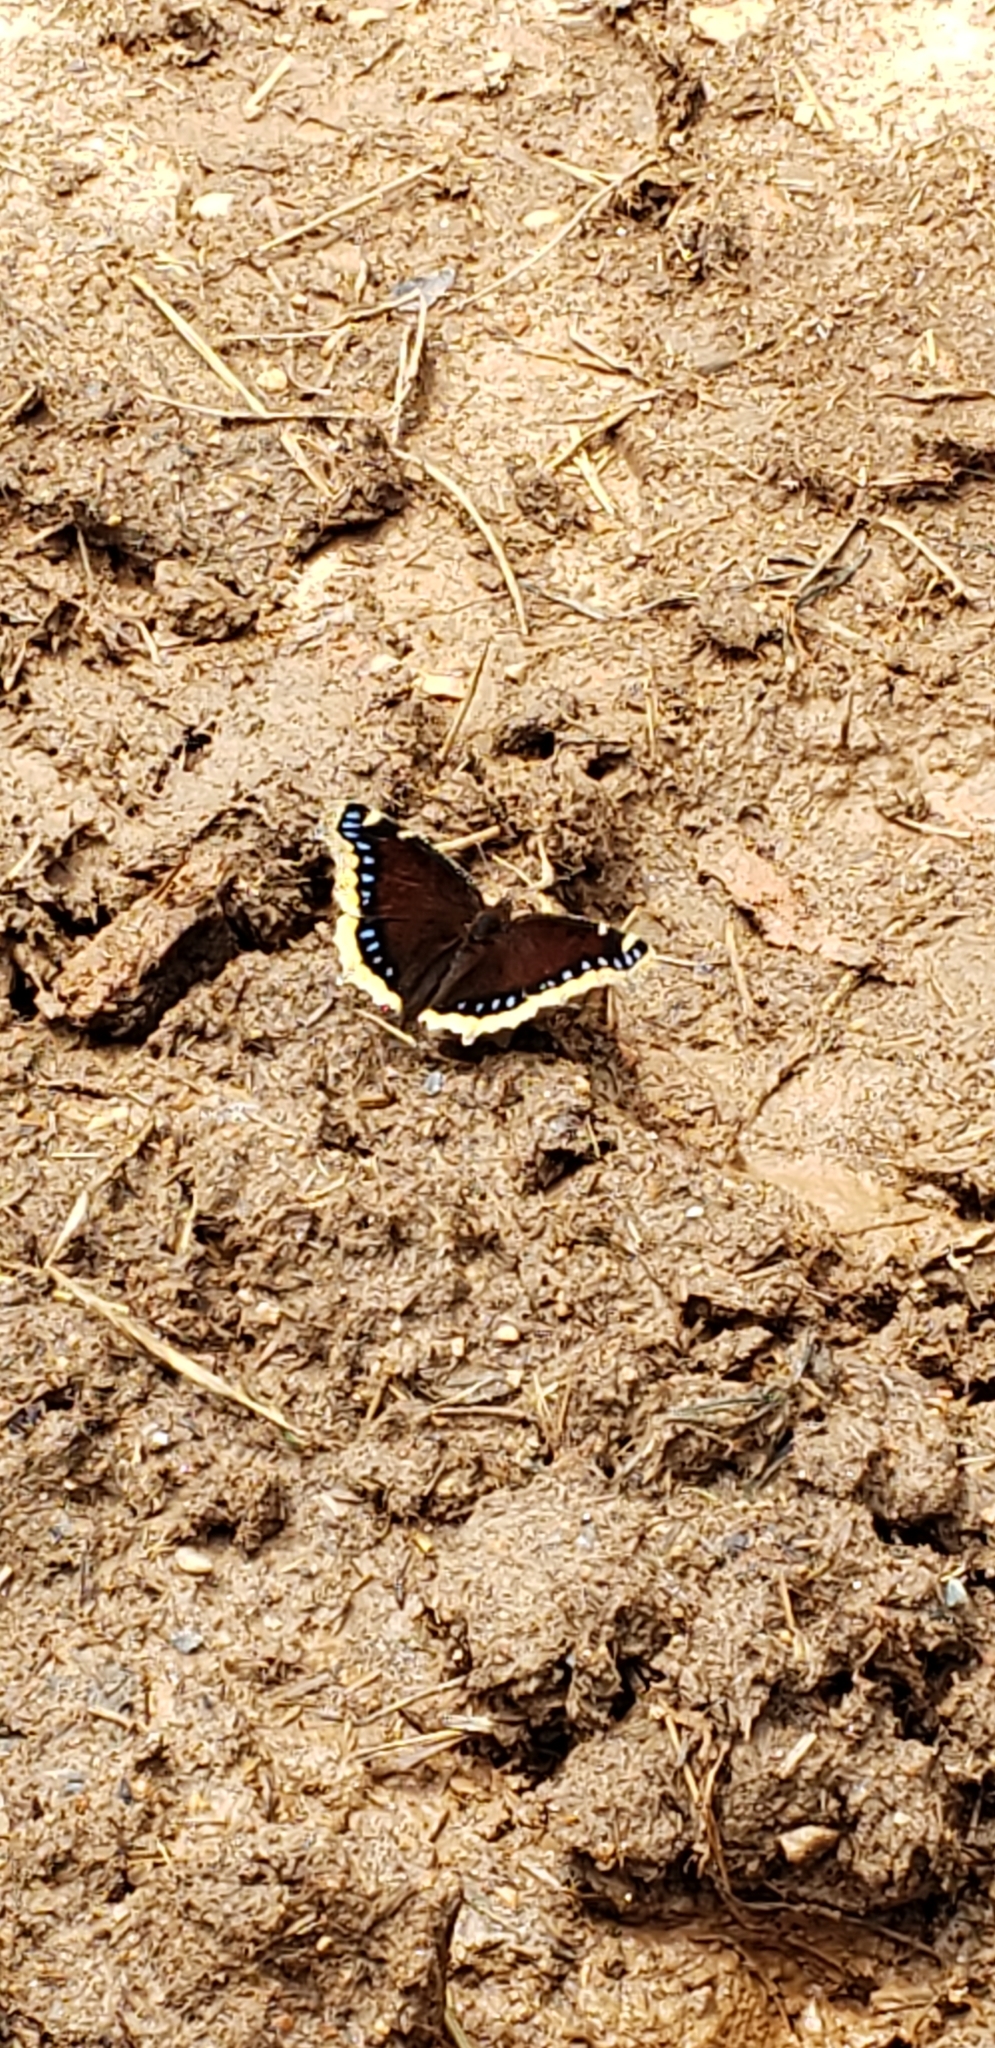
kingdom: Animalia
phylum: Arthropoda
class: Insecta
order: Lepidoptera
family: Nymphalidae
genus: Nymphalis
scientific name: Nymphalis antiopa
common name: Camberwell beauty
